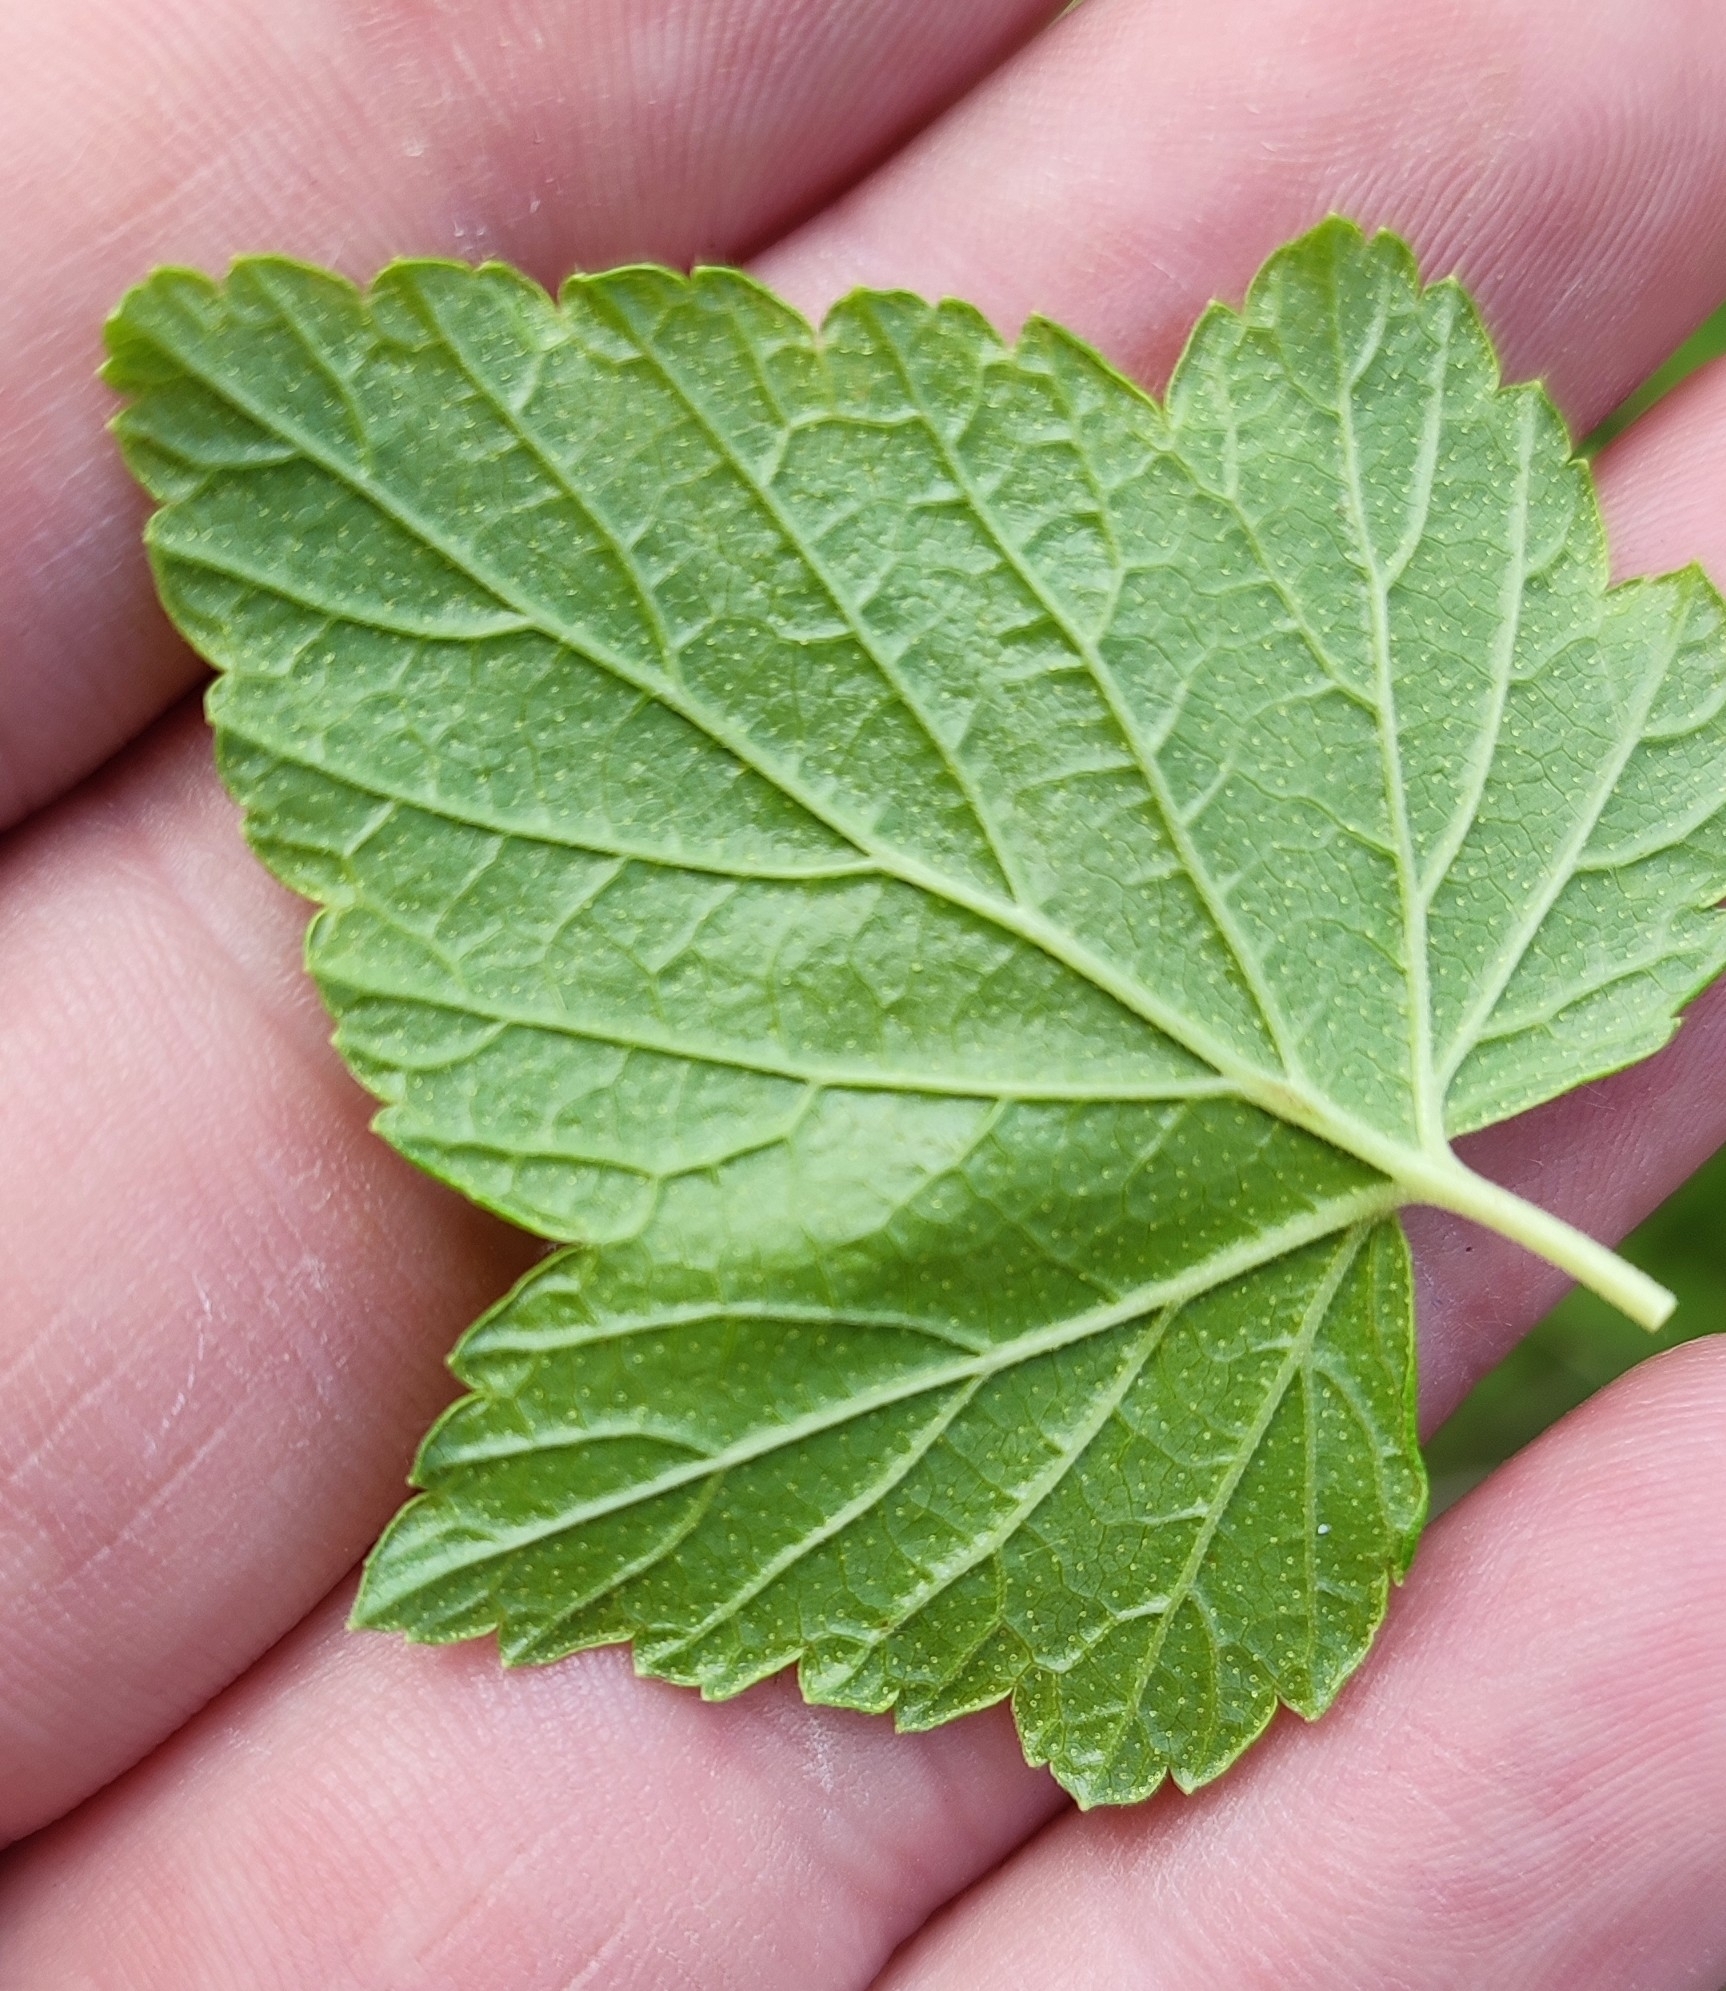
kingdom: Plantae
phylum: Tracheophyta
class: Magnoliopsida
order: Saxifragales
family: Grossulariaceae
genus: Ribes
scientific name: Ribes nigrum
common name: Black currant
